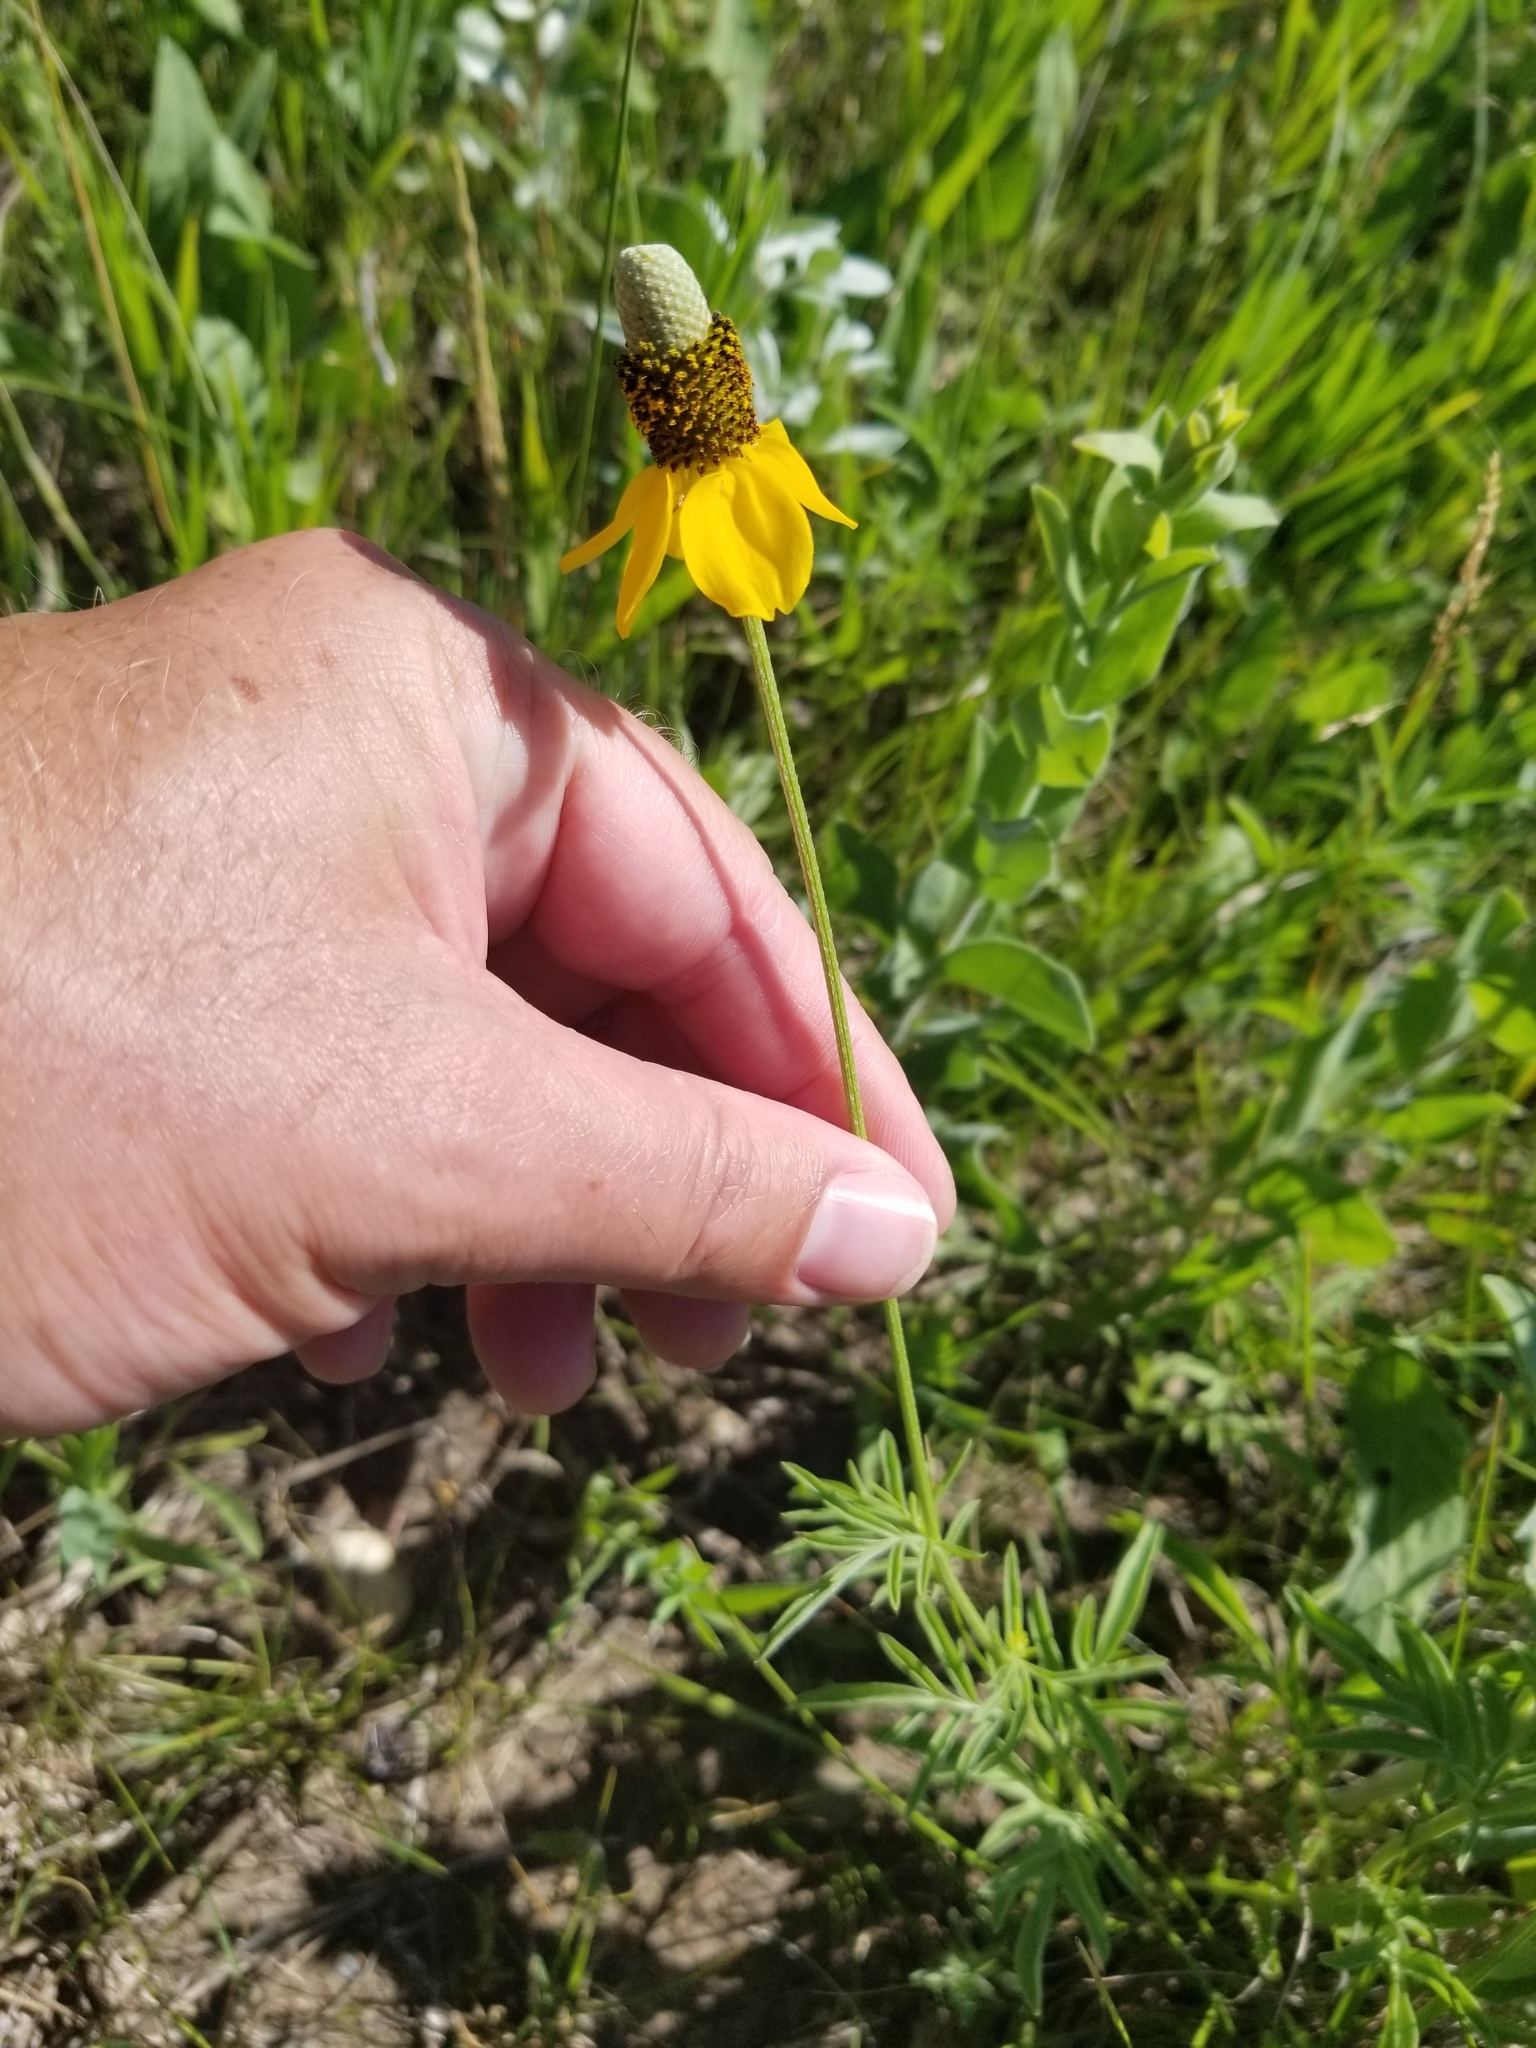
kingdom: Plantae
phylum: Tracheophyta
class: Magnoliopsida
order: Asterales
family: Asteraceae
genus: Ratibida
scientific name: Ratibida columnifera
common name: Prairie coneflower
